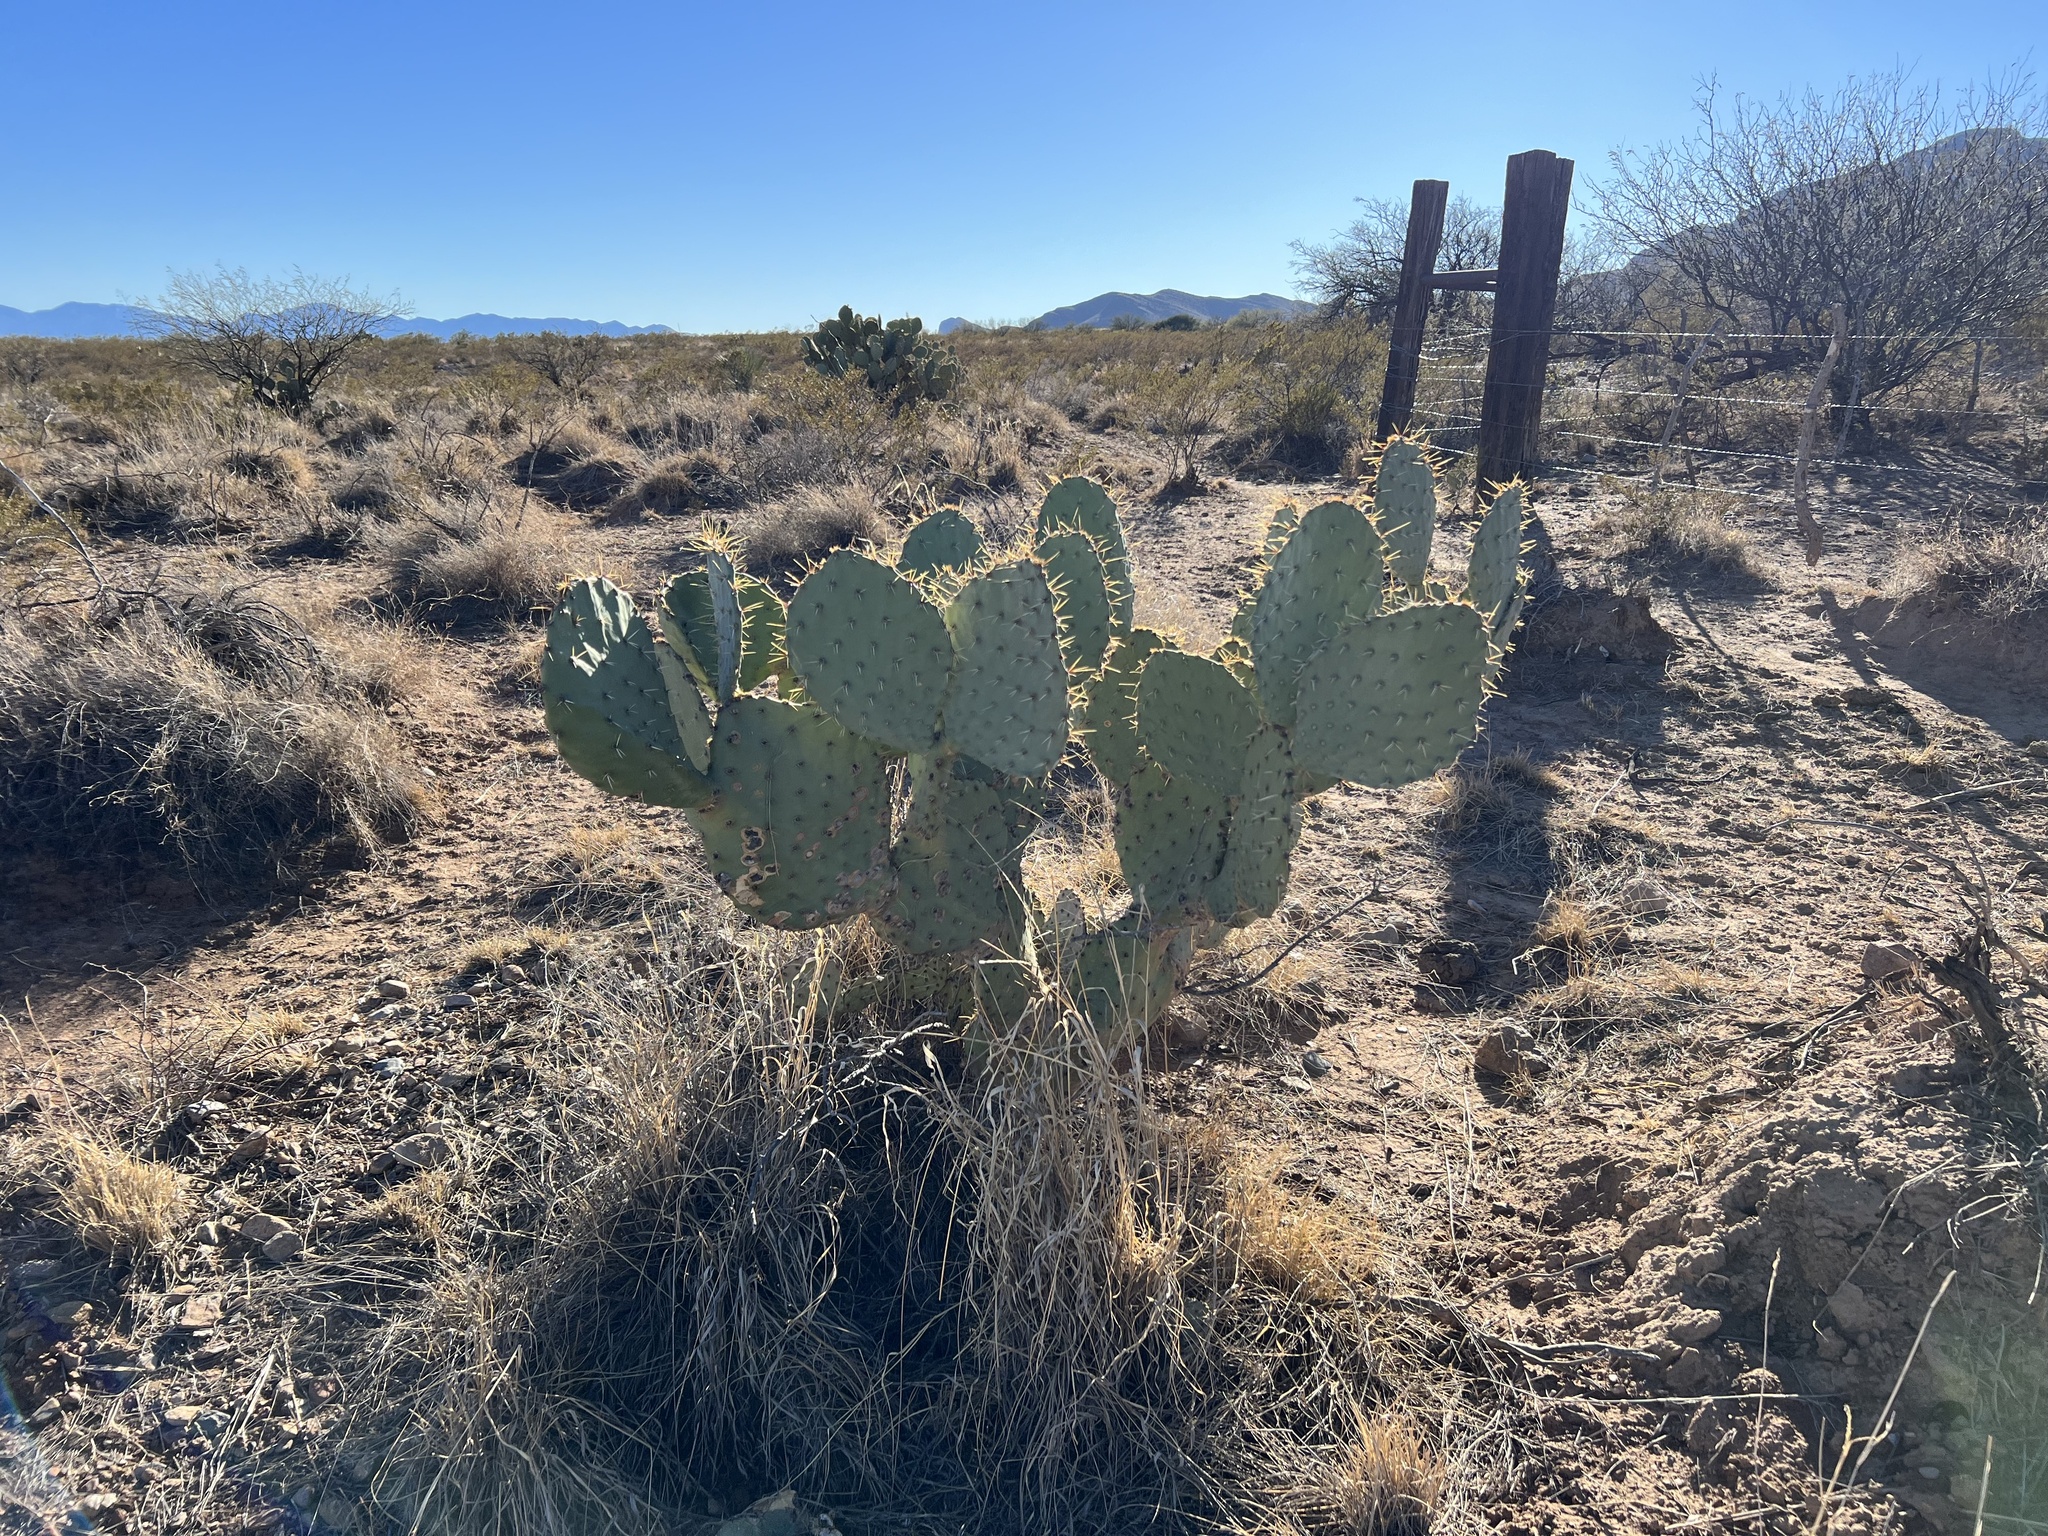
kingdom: Plantae
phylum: Tracheophyta
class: Magnoliopsida
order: Caryophyllales
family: Cactaceae
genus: Opuntia
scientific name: Opuntia engelmannii
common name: Cactus-apple
